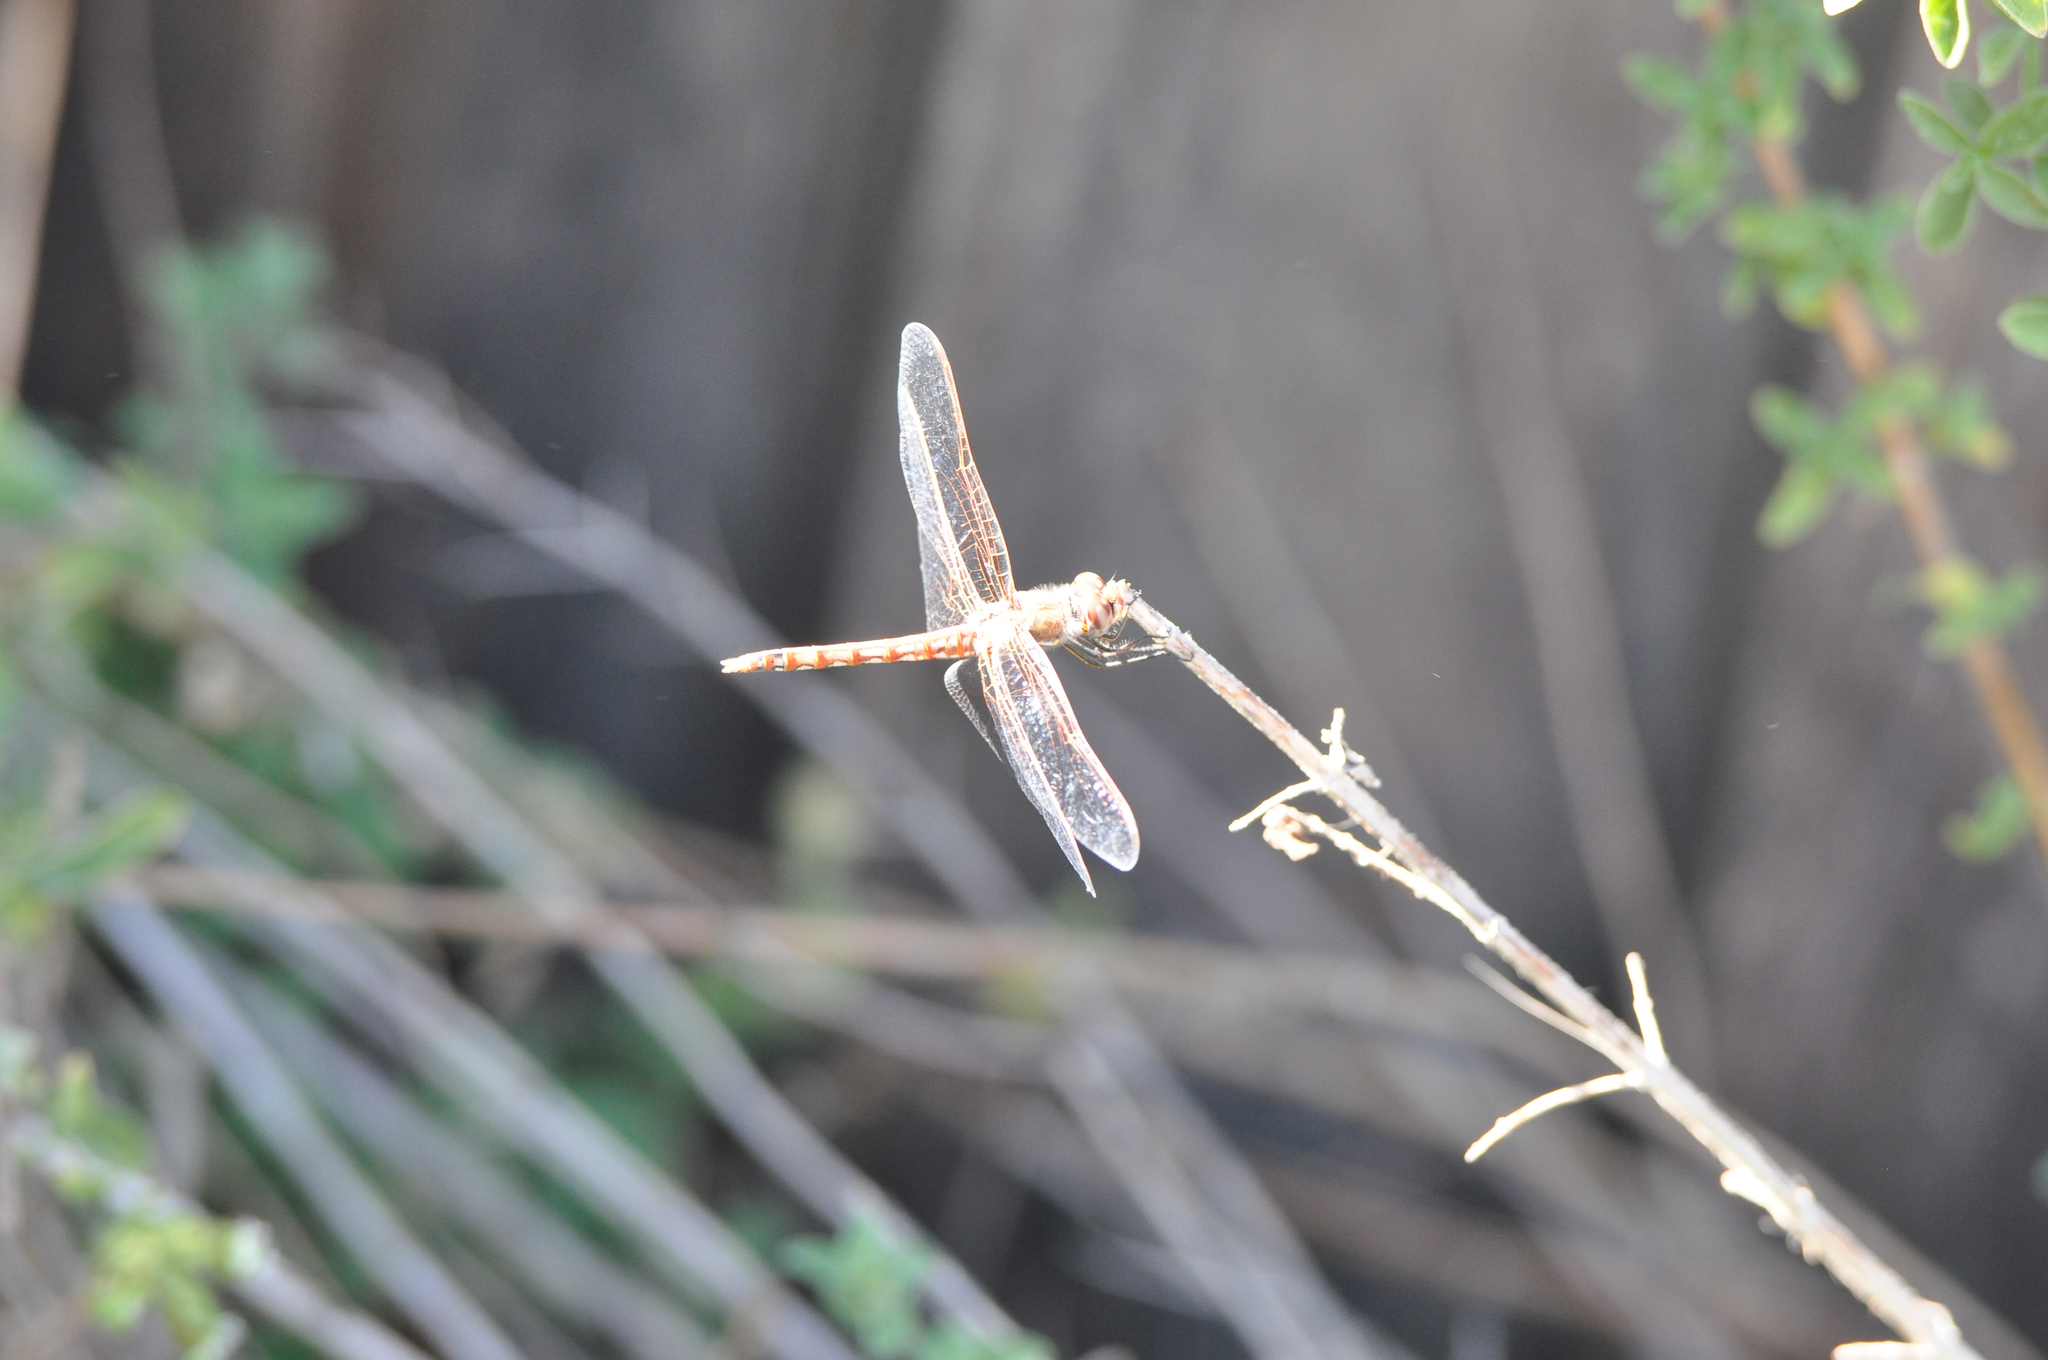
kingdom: Animalia
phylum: Arthropoda
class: Insecta
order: Odonata
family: Libellulidae
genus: Sympetrum
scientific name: Sympetrum corruptum
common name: Variegated meadowhawk
